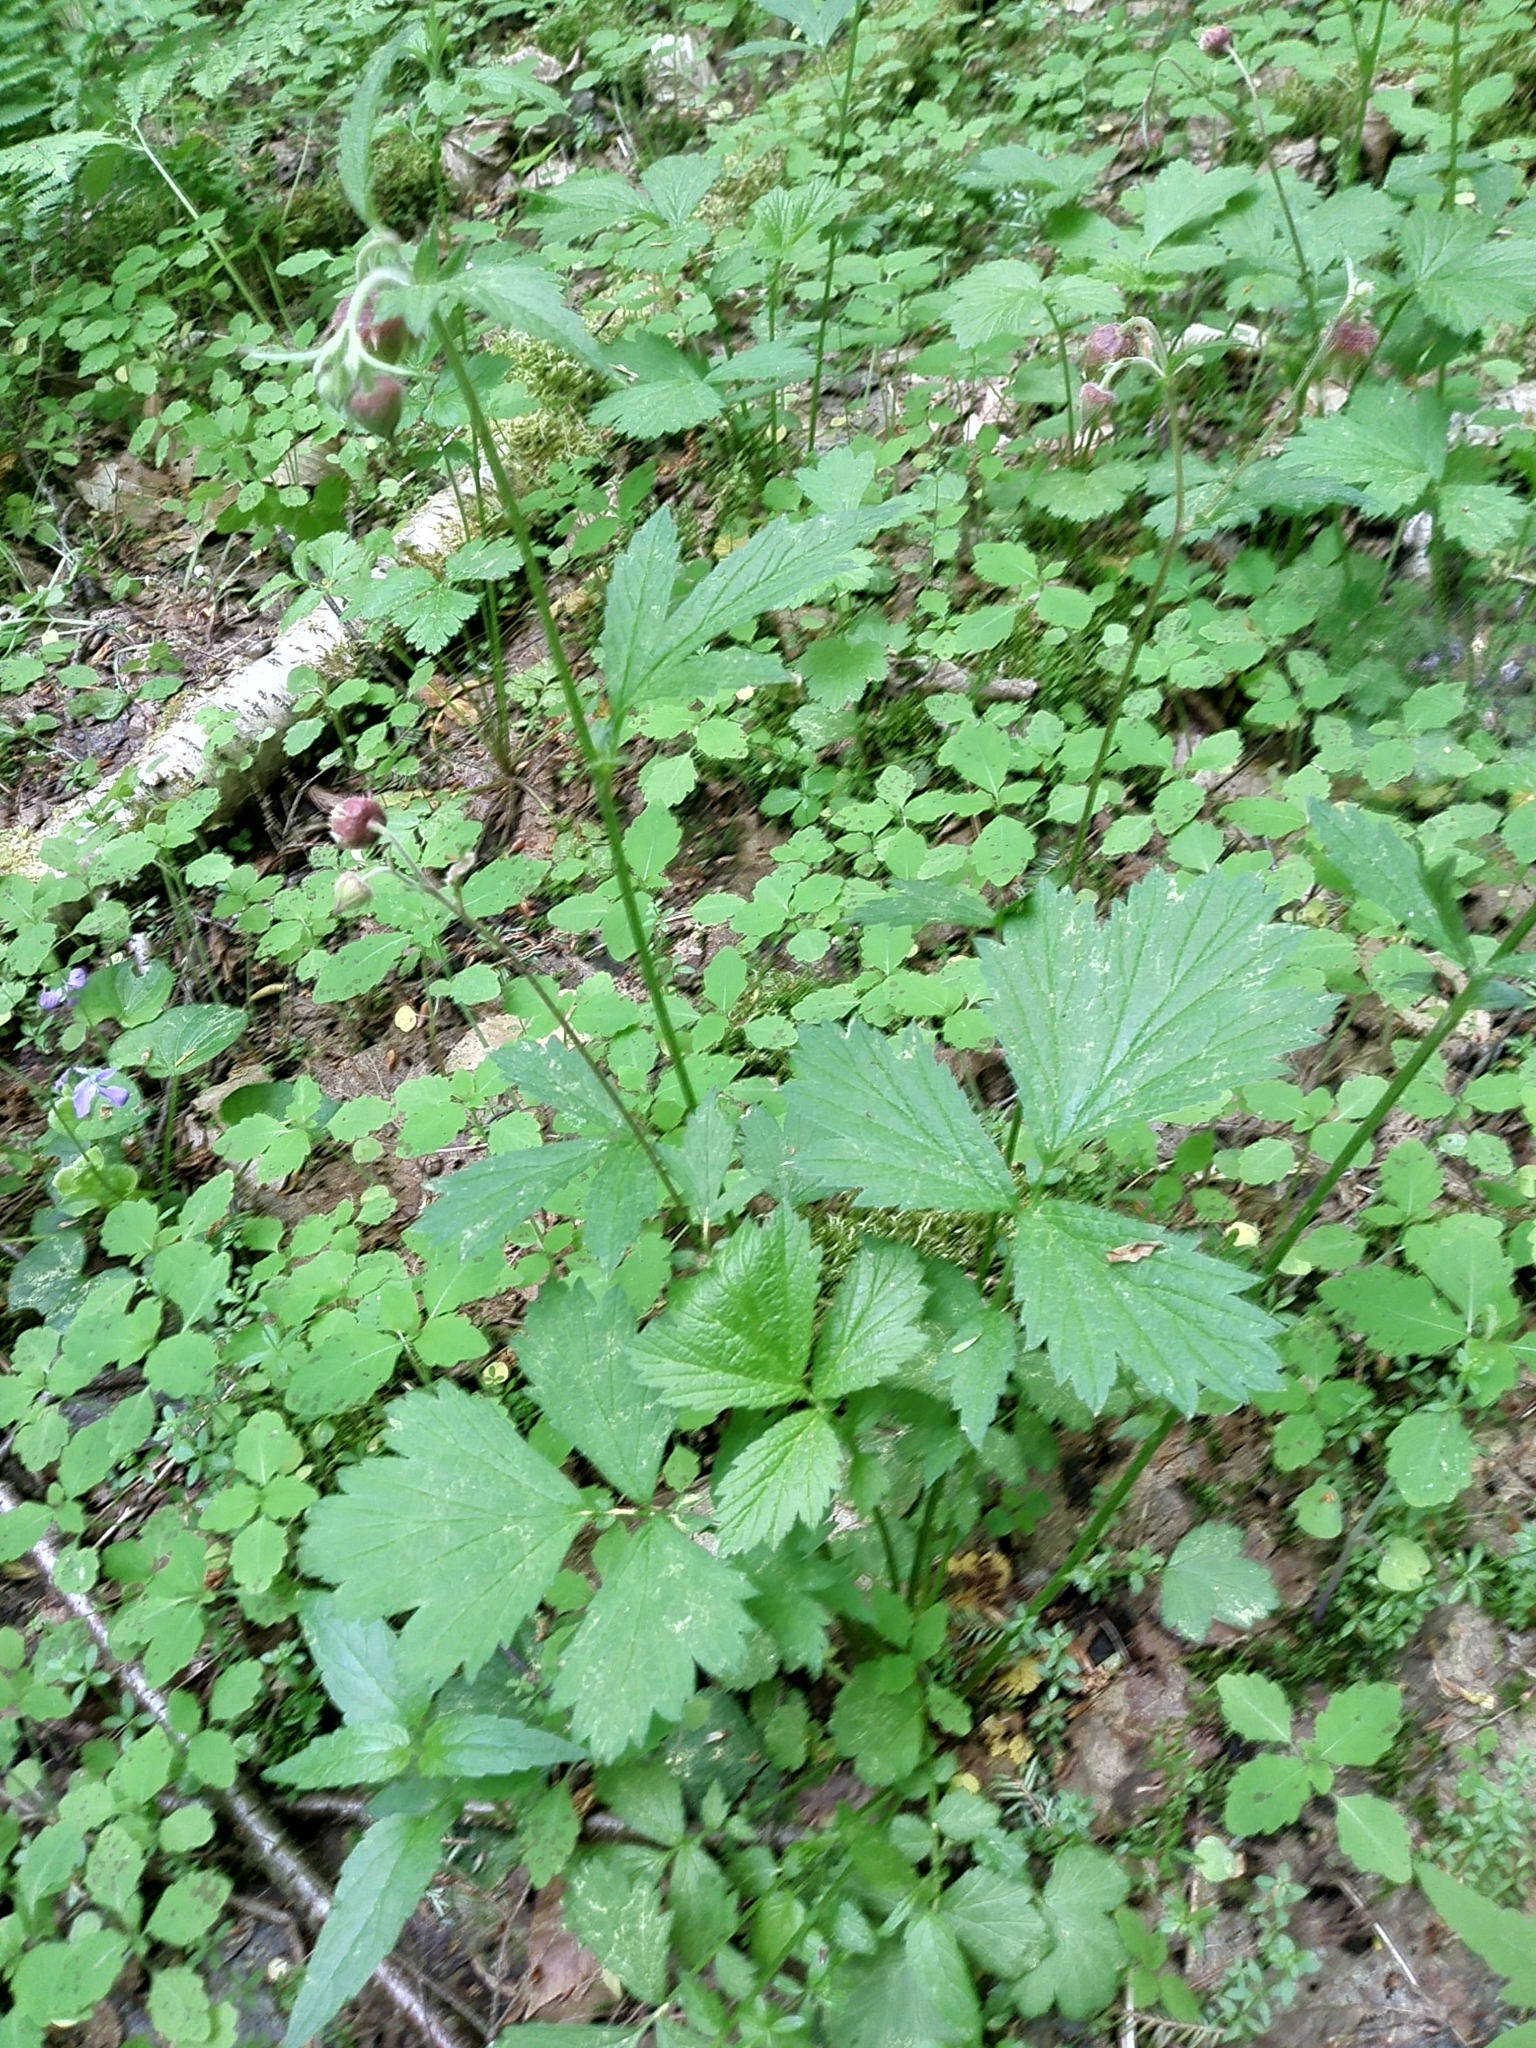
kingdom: Plantae
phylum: Tracheophyta
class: Magnoliopsida
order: Rosales
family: Rosaceae
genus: Geum
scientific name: Geum rivale
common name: Water avens
